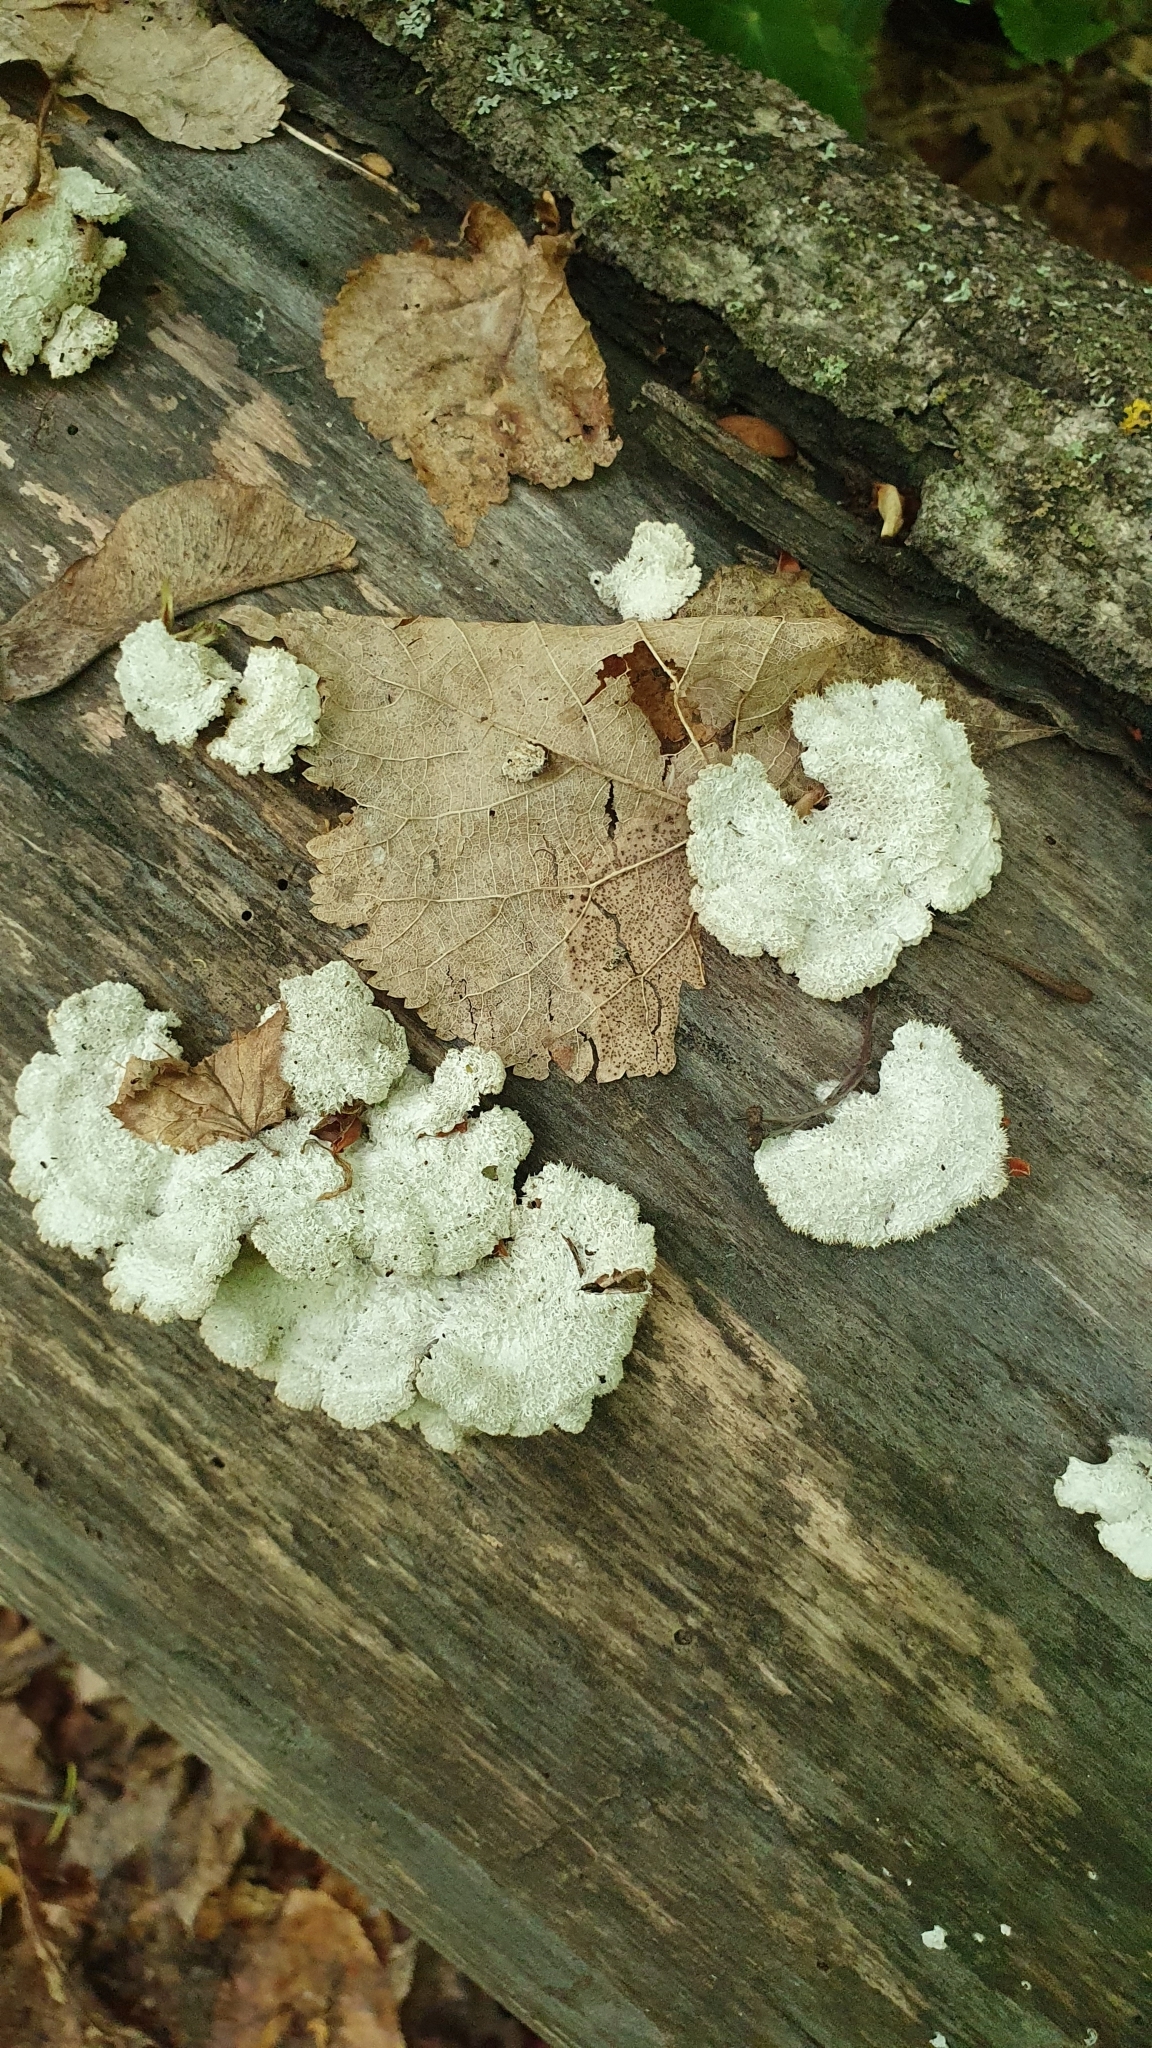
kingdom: Fungi
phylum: Basidiomycota
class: Agaricomycetes
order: Agaricales
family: Schizophyllaceae
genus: Schizophyllum
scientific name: Schizophyllum commune
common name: Common porecrust
